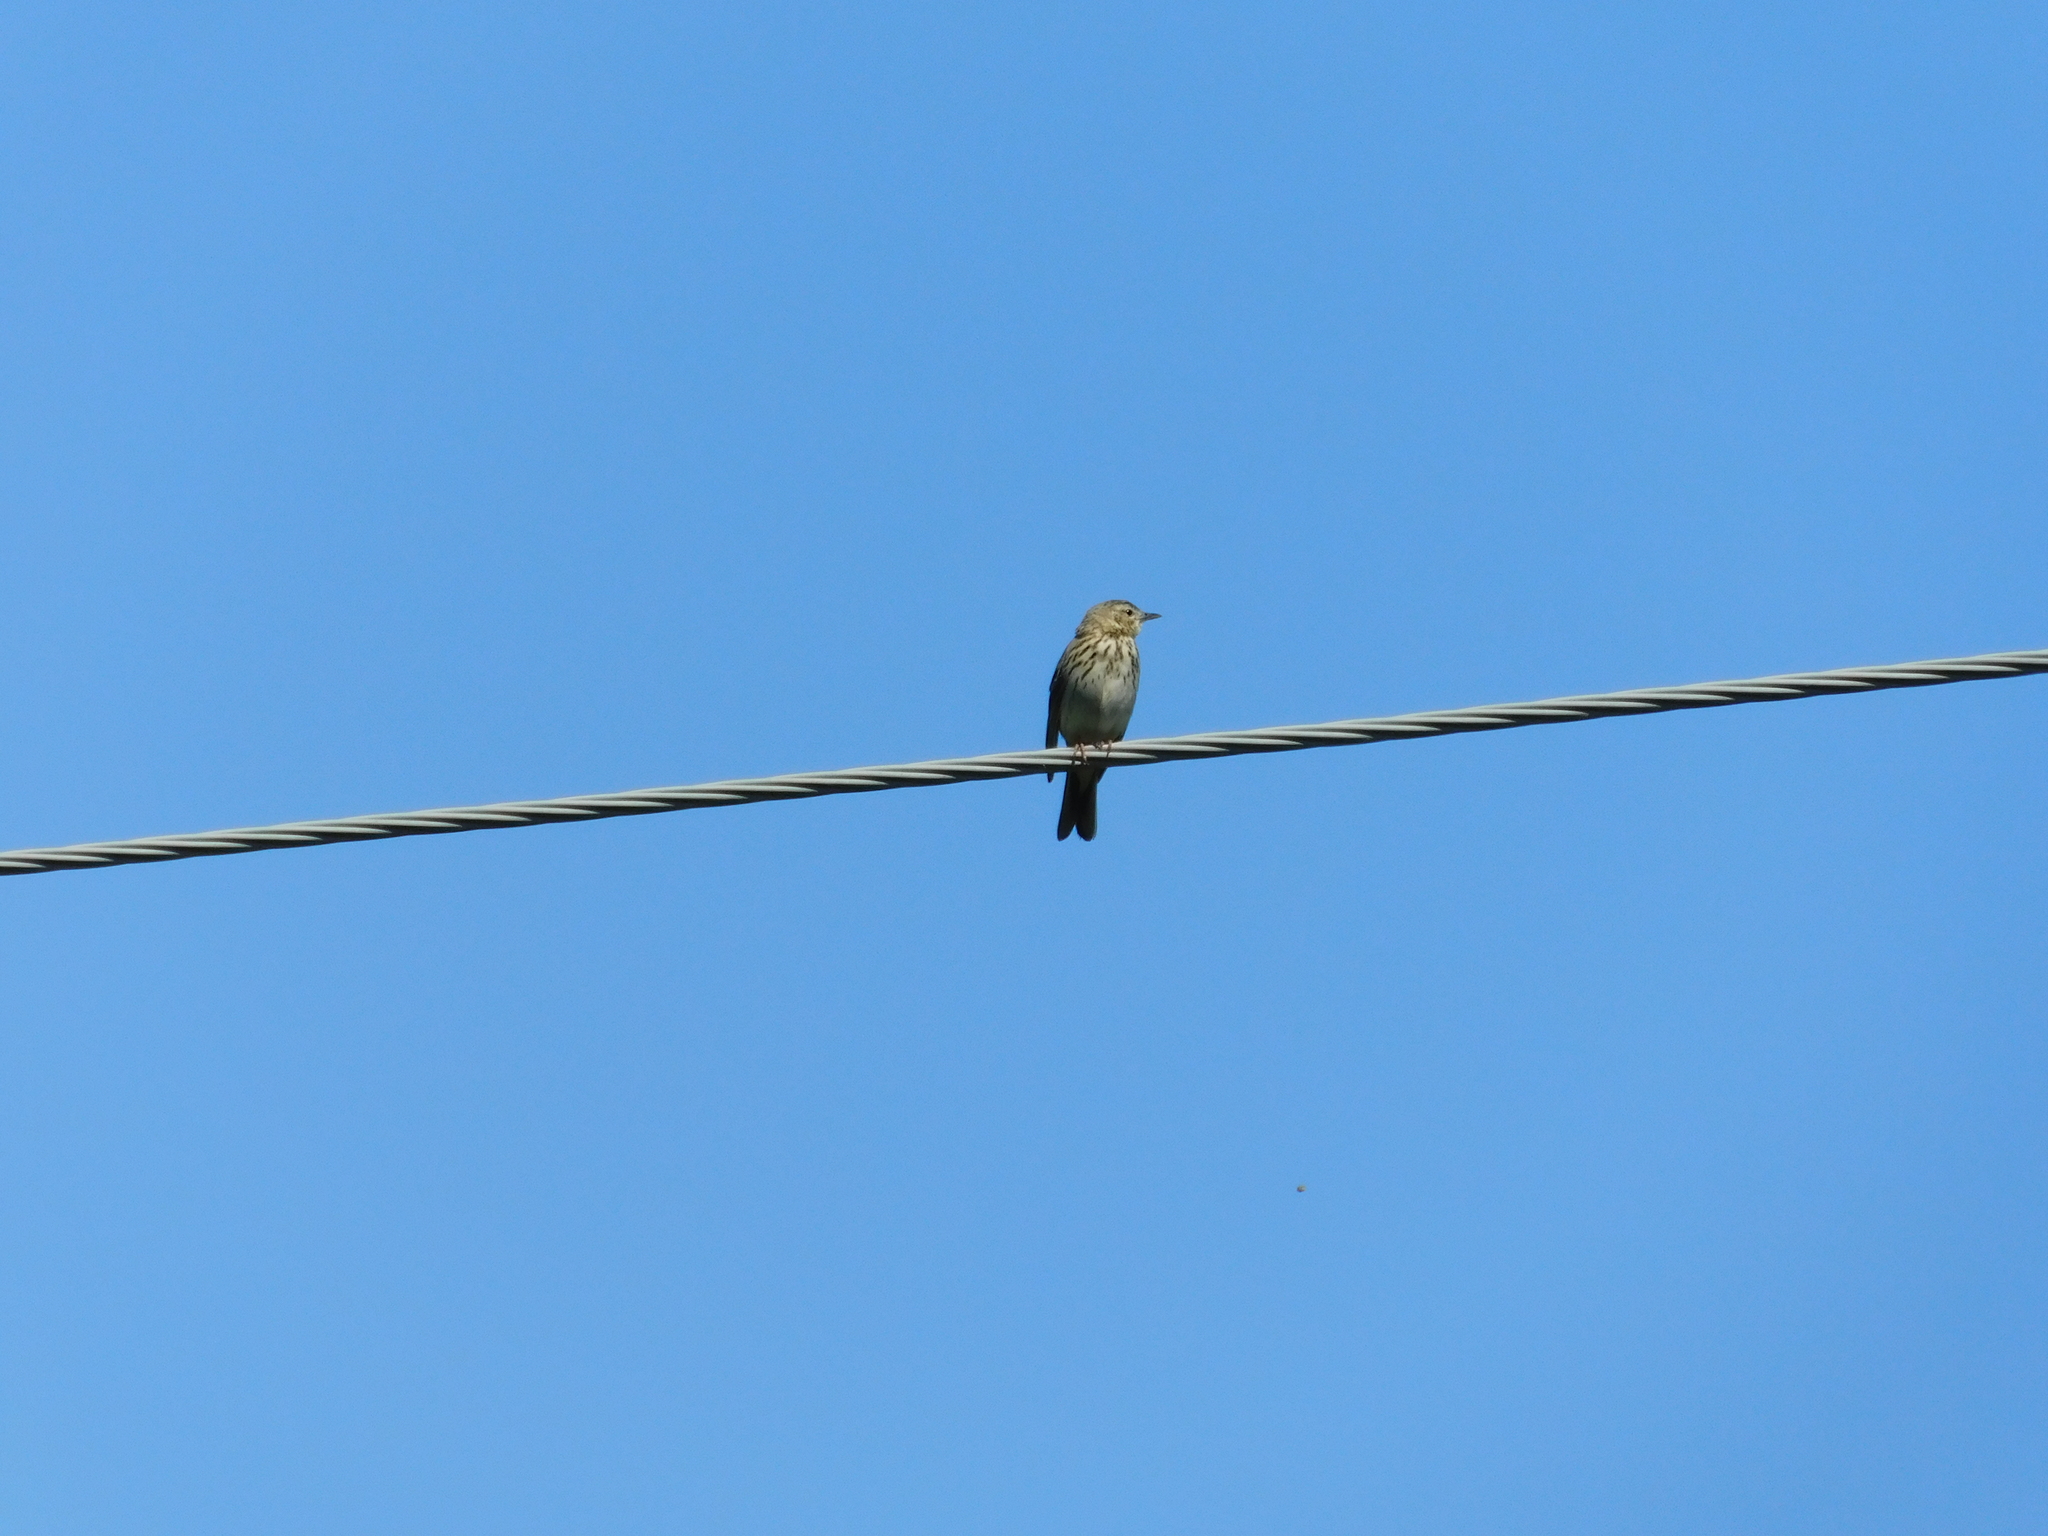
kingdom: Animalia
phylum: Chordata
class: Aves
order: Passeriformes
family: Motacillidae
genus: Anthus
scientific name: Anthus trivialis
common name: Tree pipit
